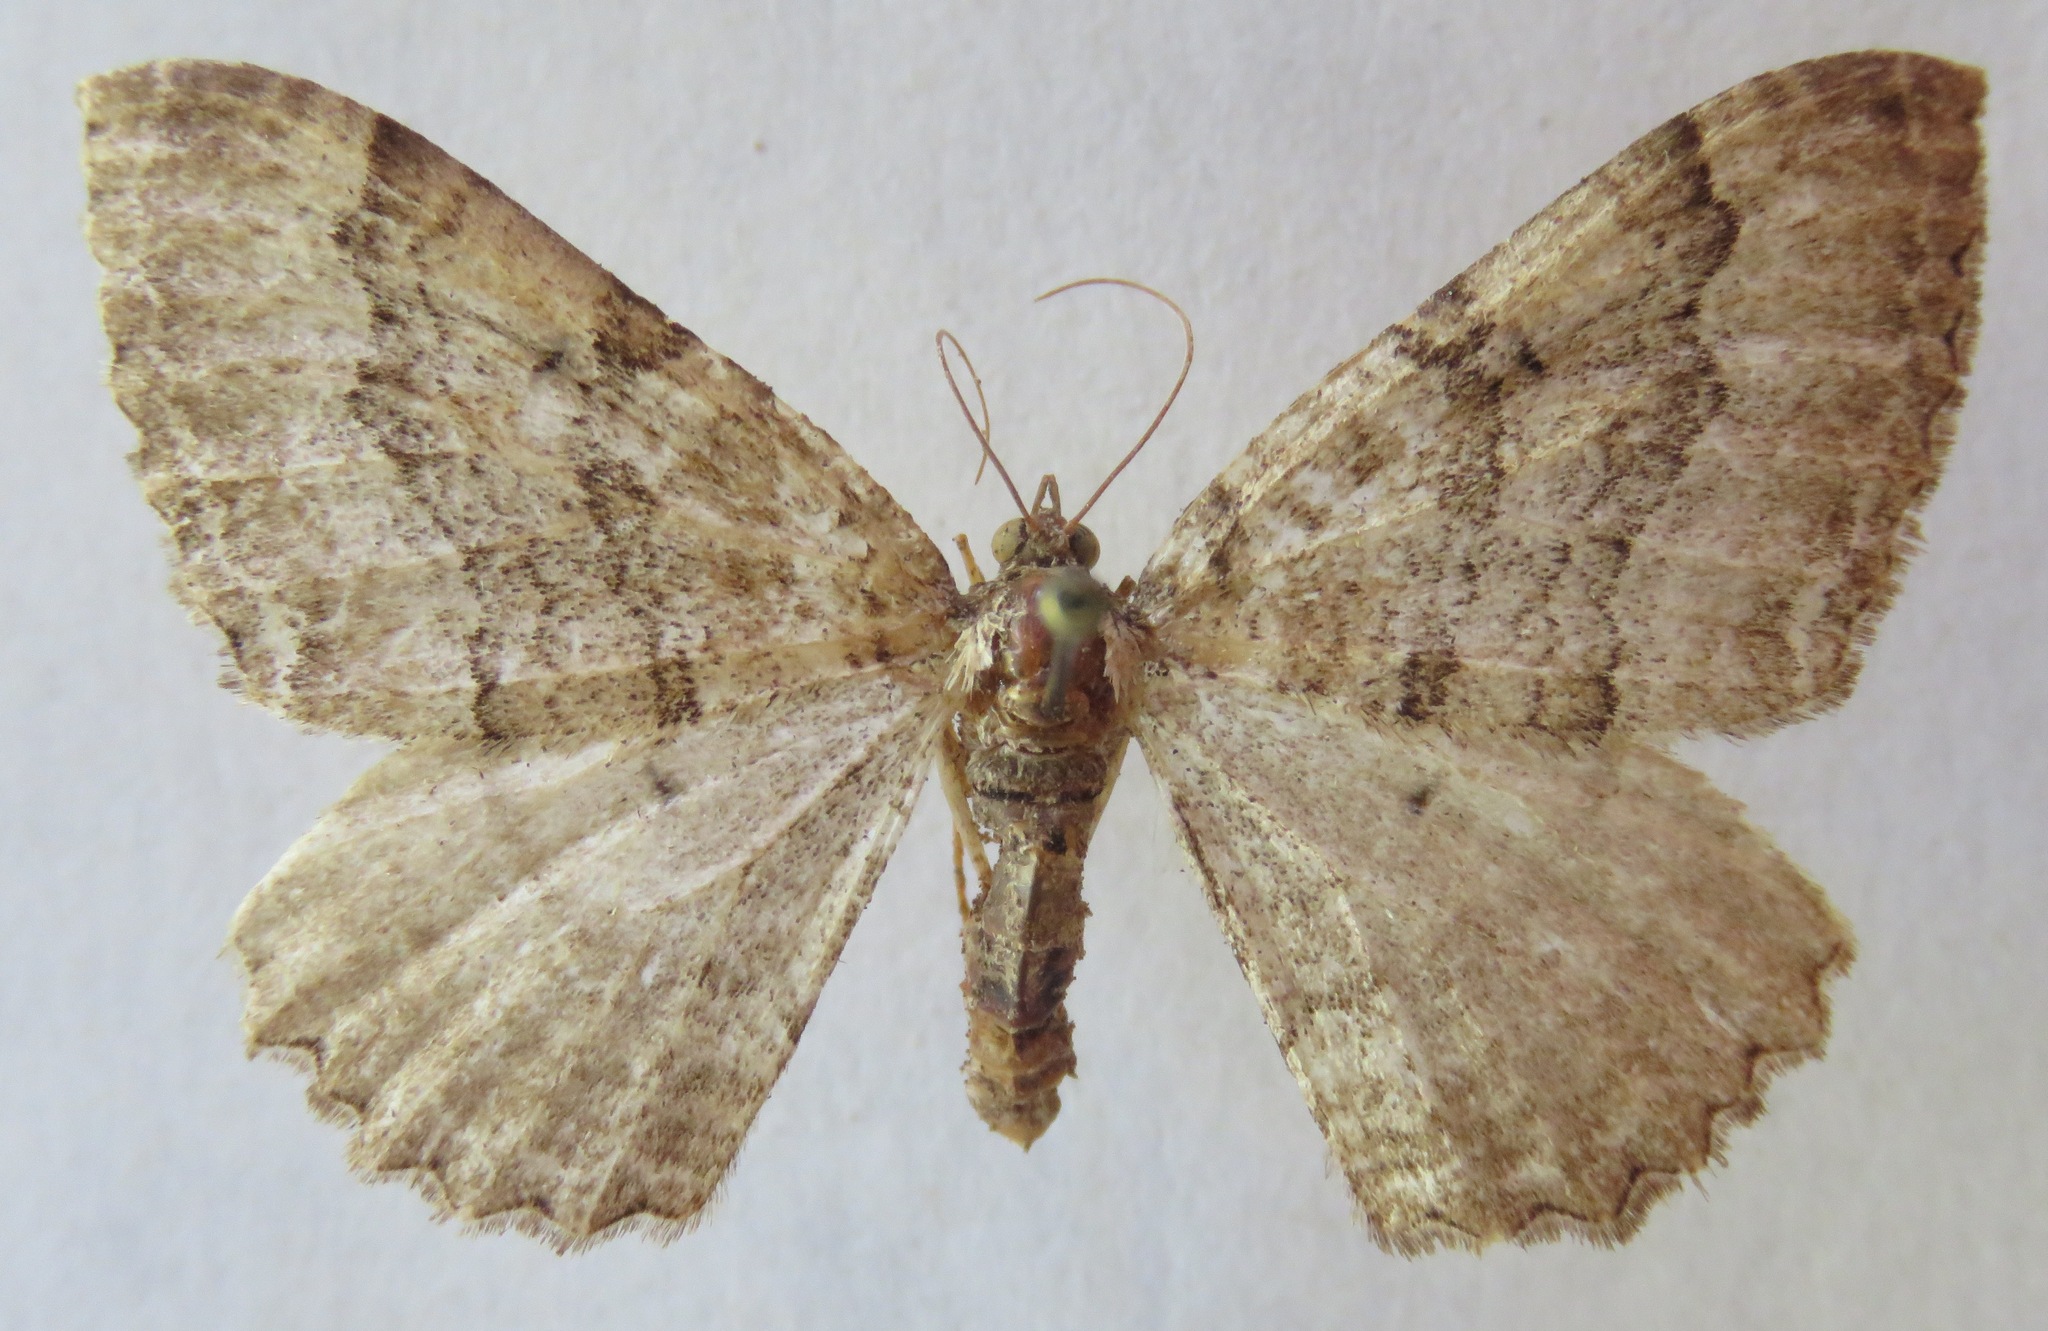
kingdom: Animalia
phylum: Arthropoda
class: Insecta
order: Lepidoptera
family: Geometridae
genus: Rheumaptera
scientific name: Rheumaptera Hydria cervinalis
